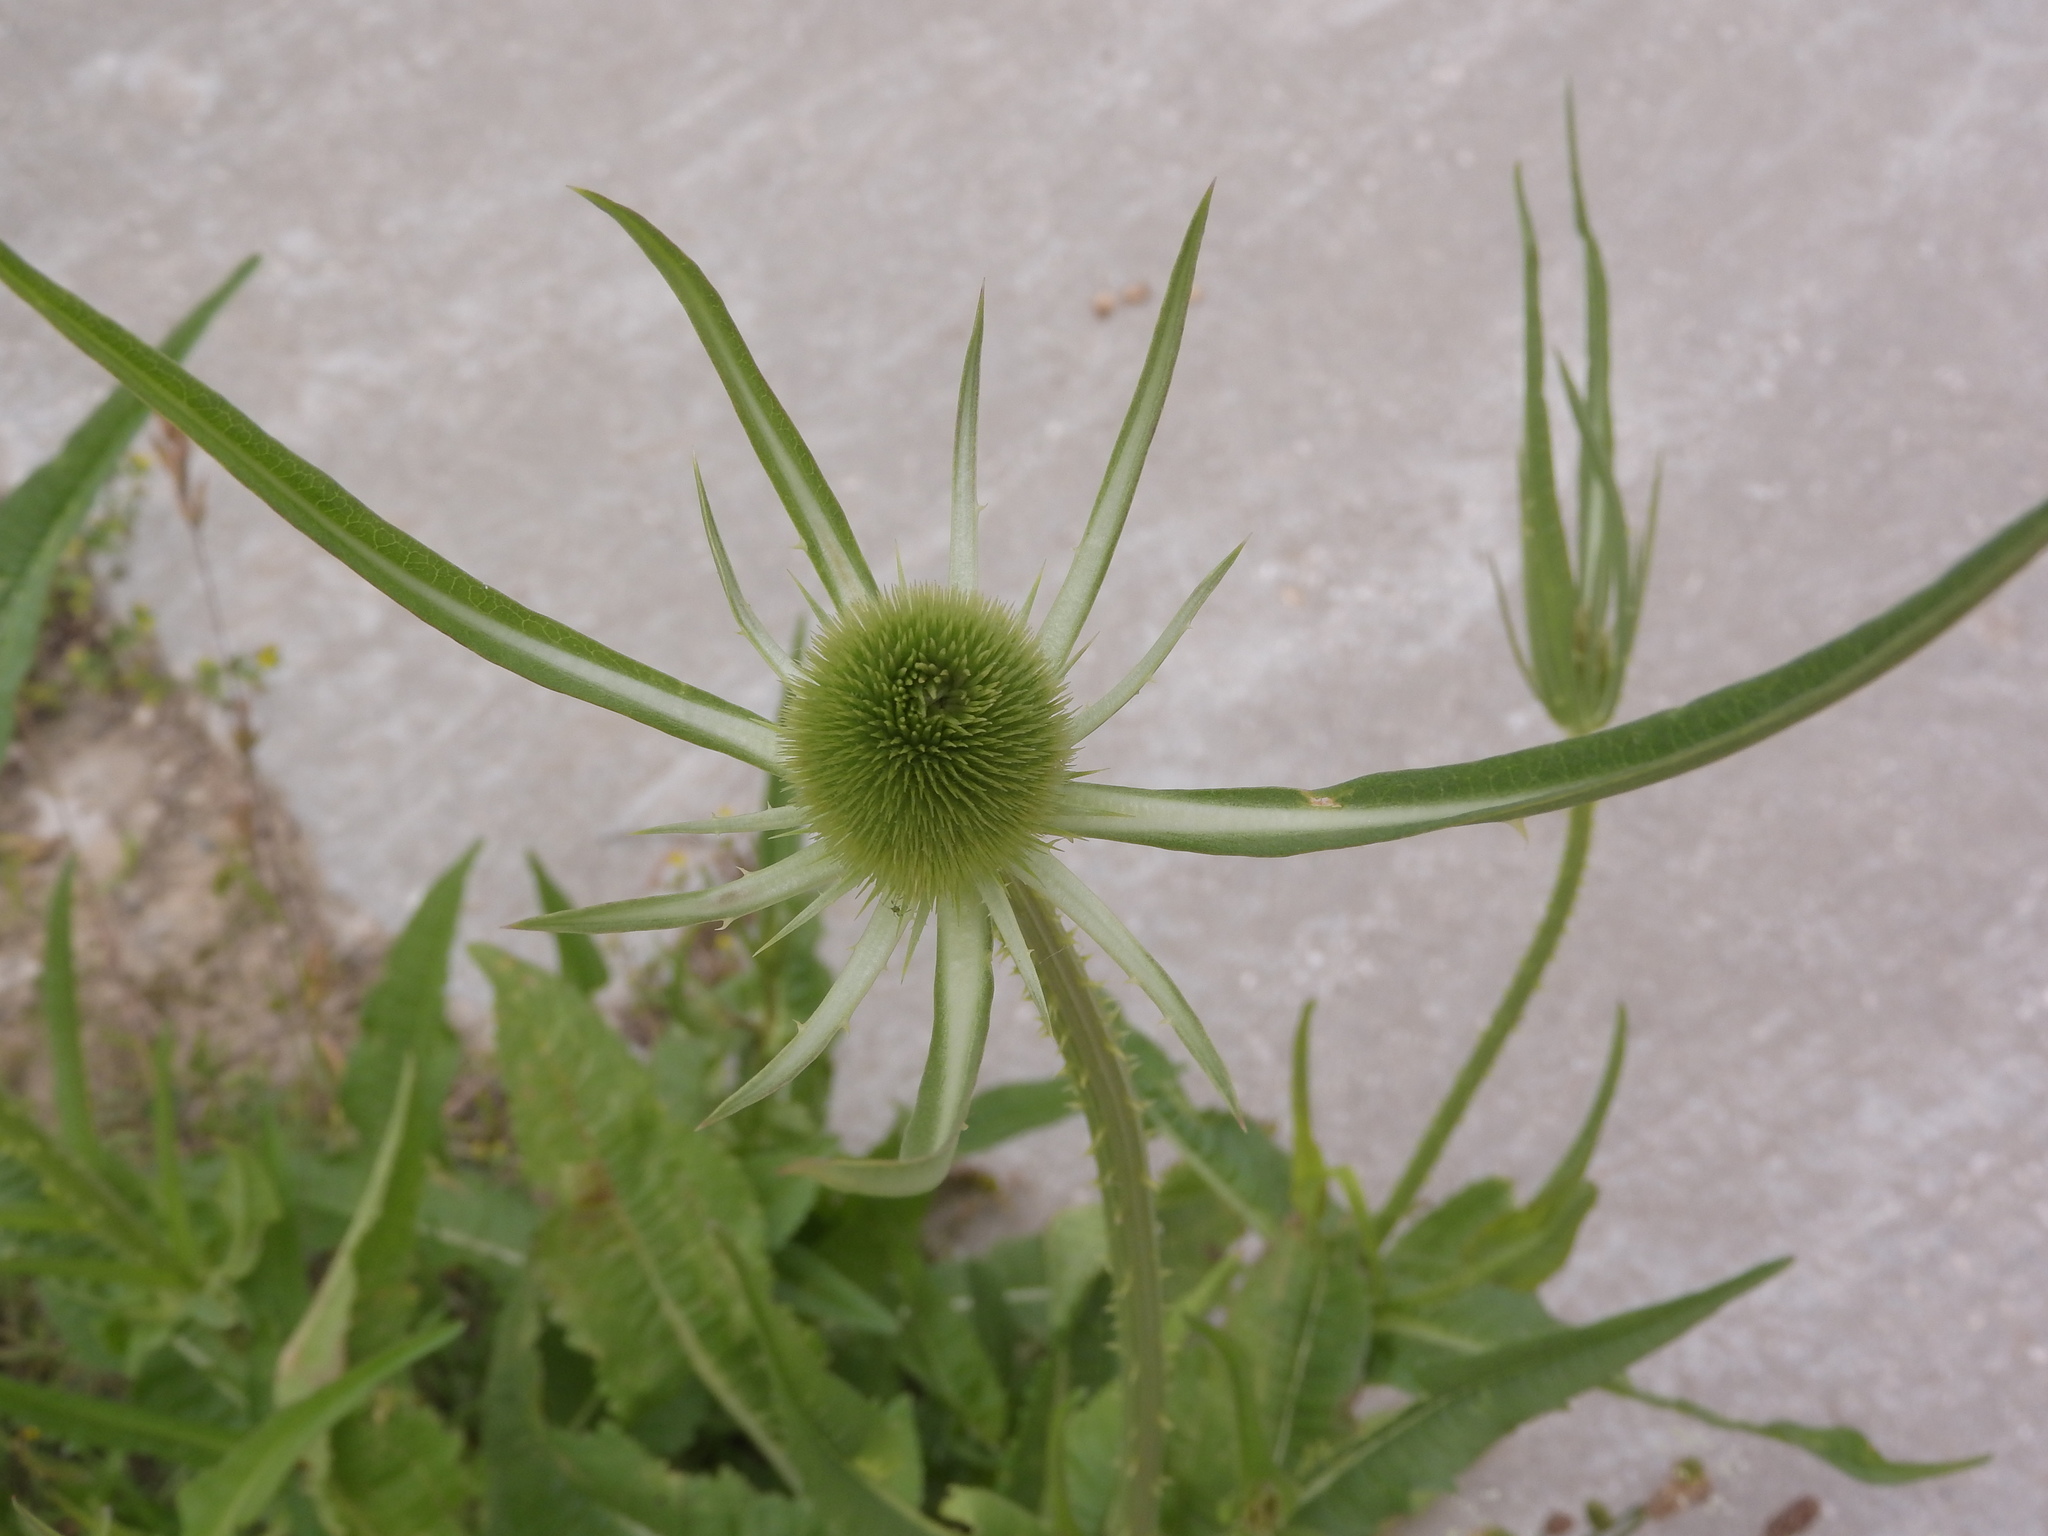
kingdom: Plantae
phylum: Tracheophyta
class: Magnoliopsida
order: Dipsacales
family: Caprifoliaceae
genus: Dipsacus
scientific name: Dipsacus fullonum
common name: Teasel
